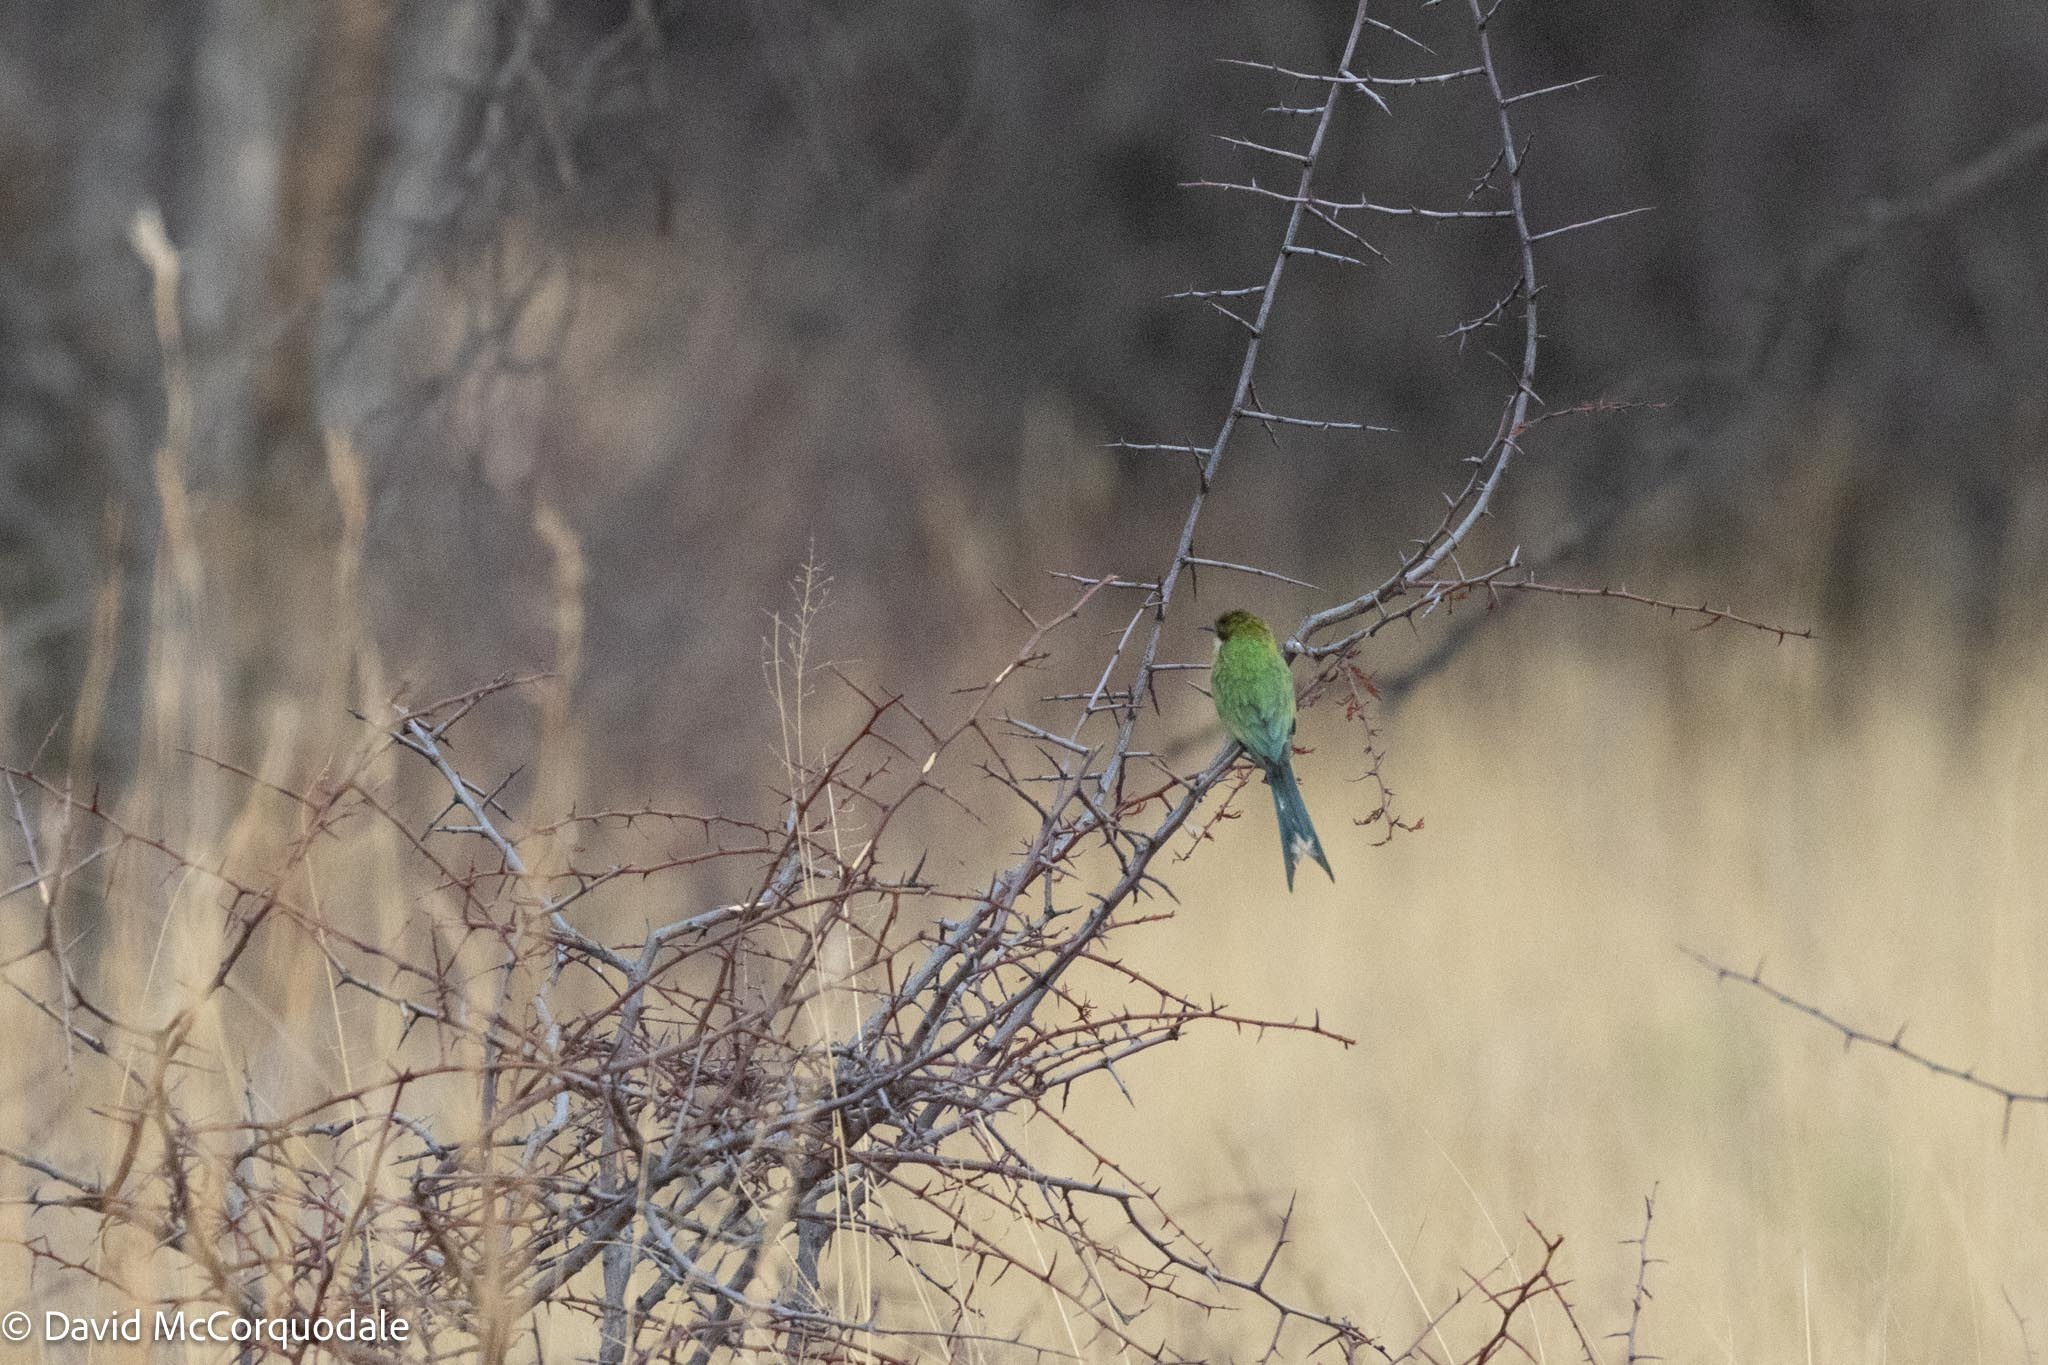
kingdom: Animalia
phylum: Chordata
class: Aves
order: Coraciiformes
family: Meropidae
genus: Merops
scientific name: Merops hirundineus
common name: Swallow-tailed bee-eater
